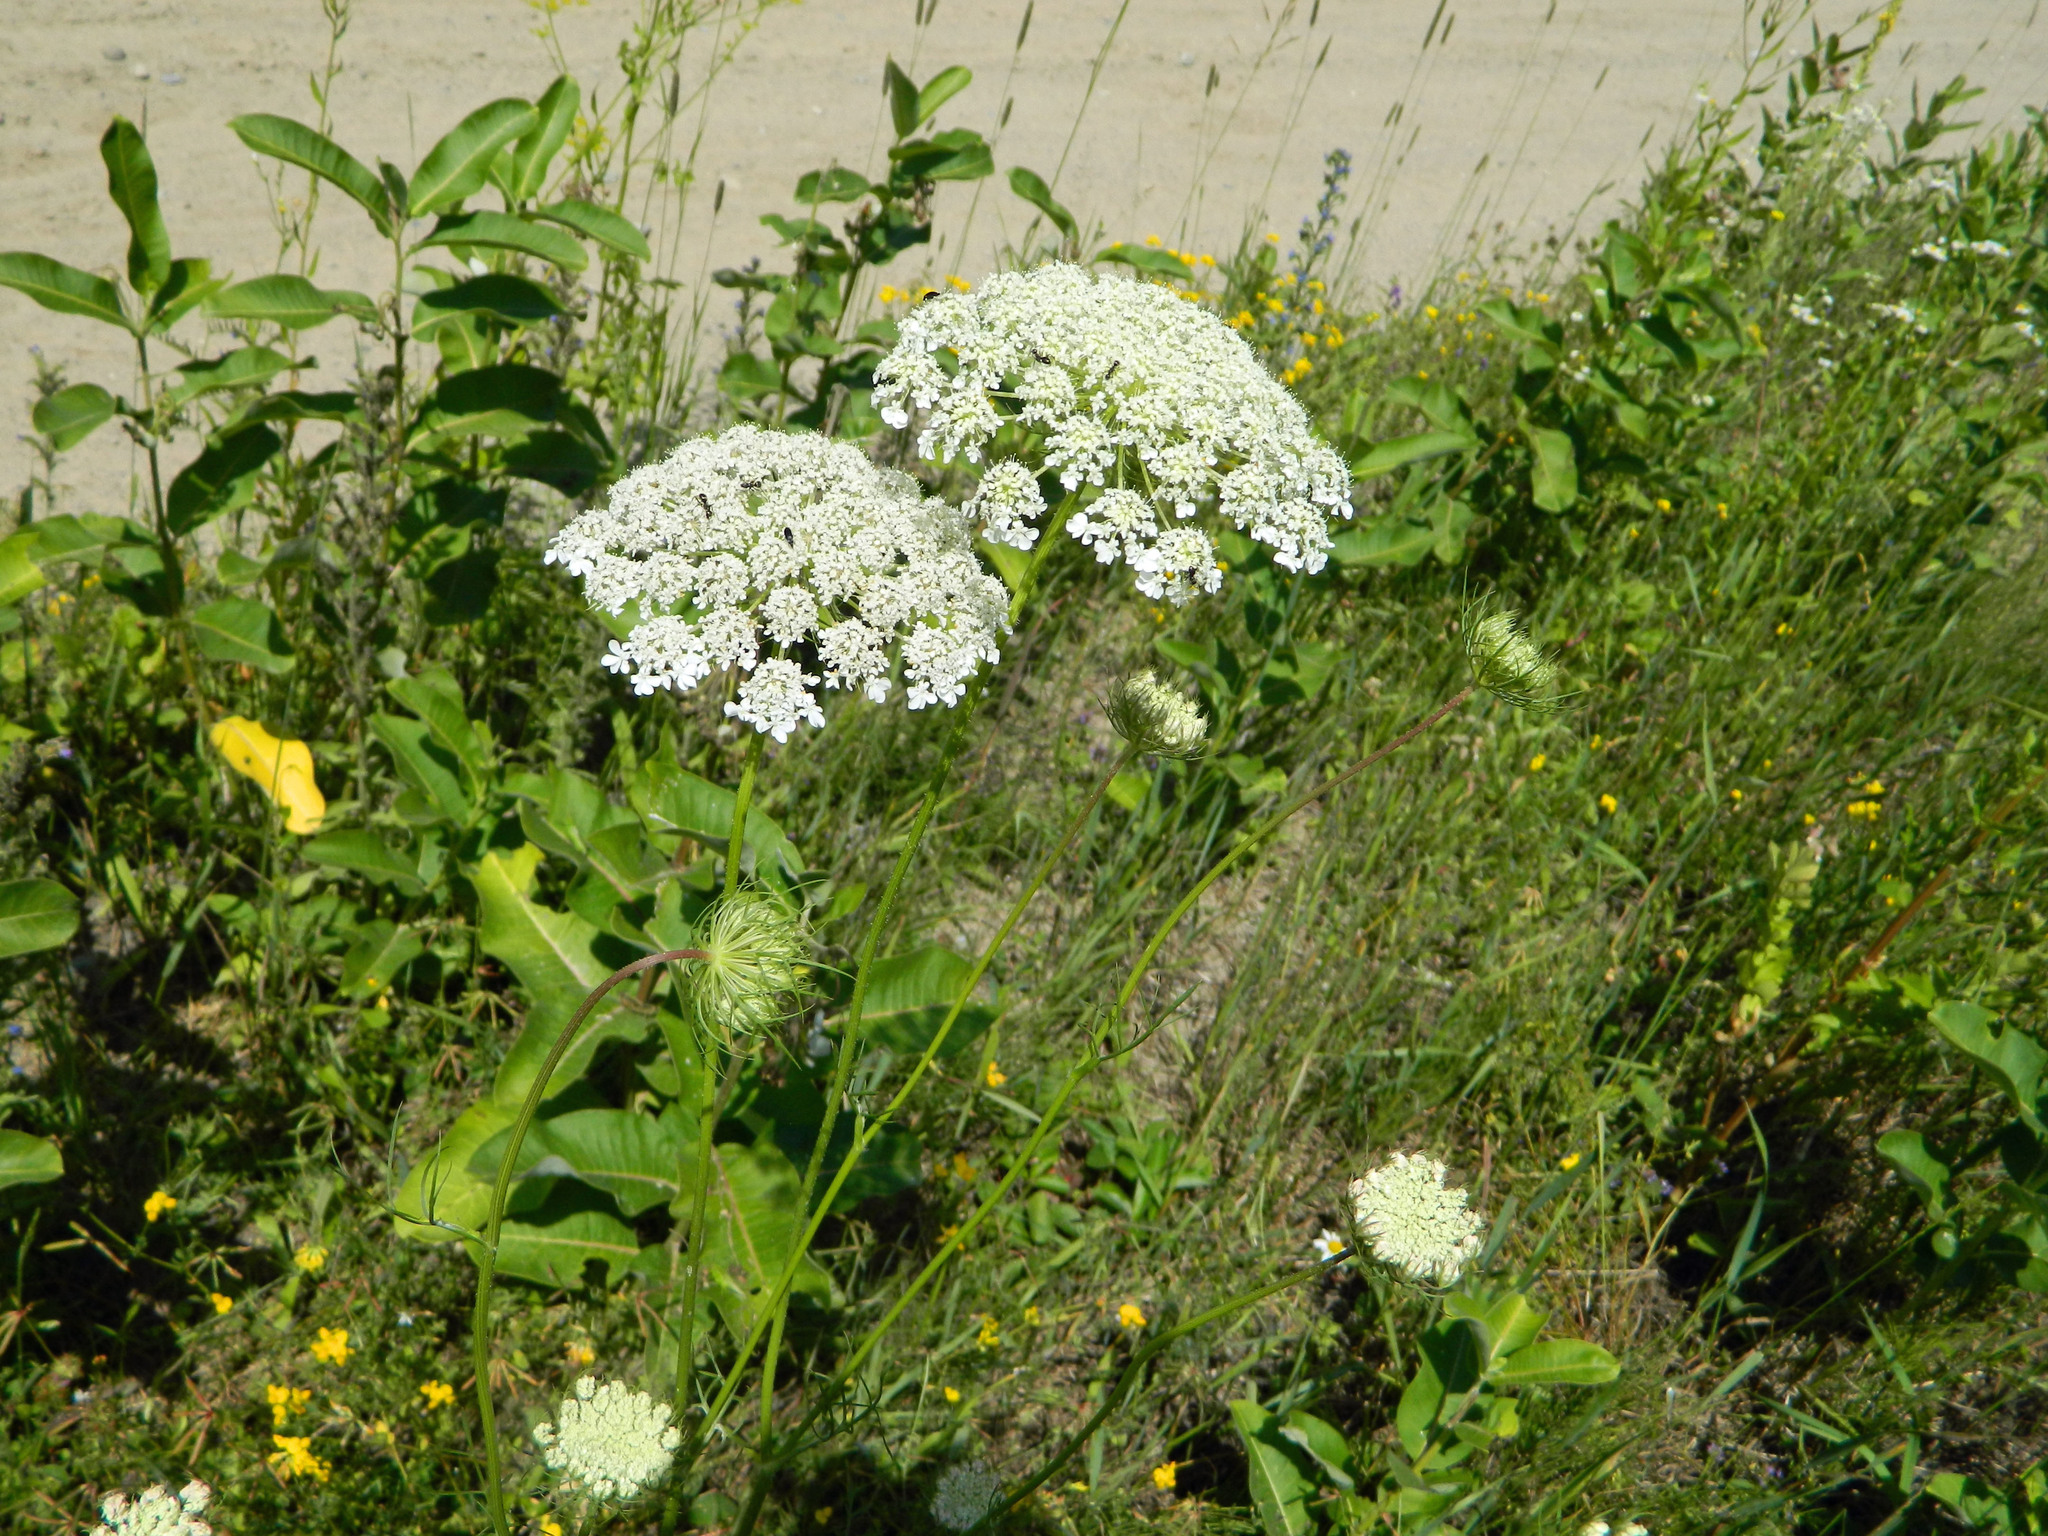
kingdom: Plantae
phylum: Tracheophyta
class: Magnoliopsida
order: Apiales
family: Apiaceae
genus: Daucus
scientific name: Daucus carota
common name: Wild carrot
